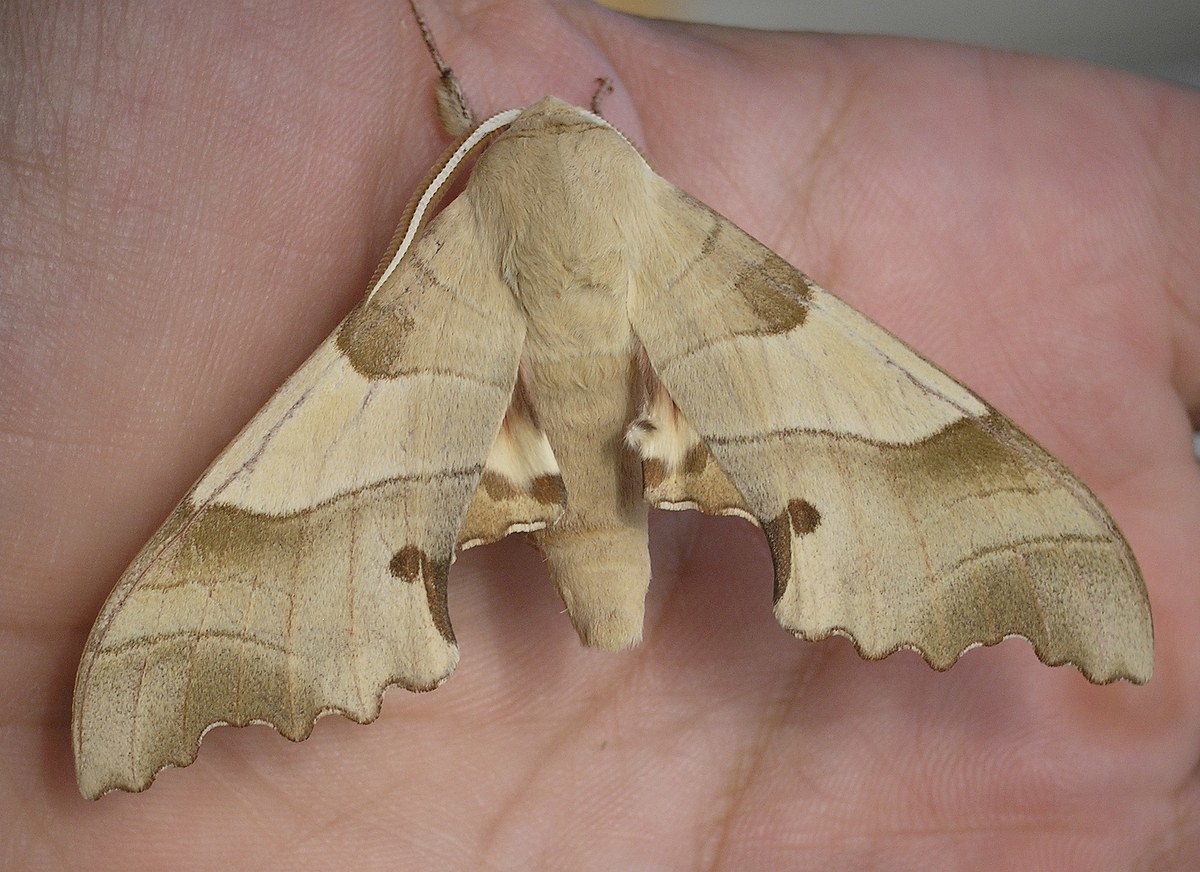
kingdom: Animalia
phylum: Arthropoda
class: Insecta
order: Lepidoptera
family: Sphingidae
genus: Marumba
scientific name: Marumba quercus
